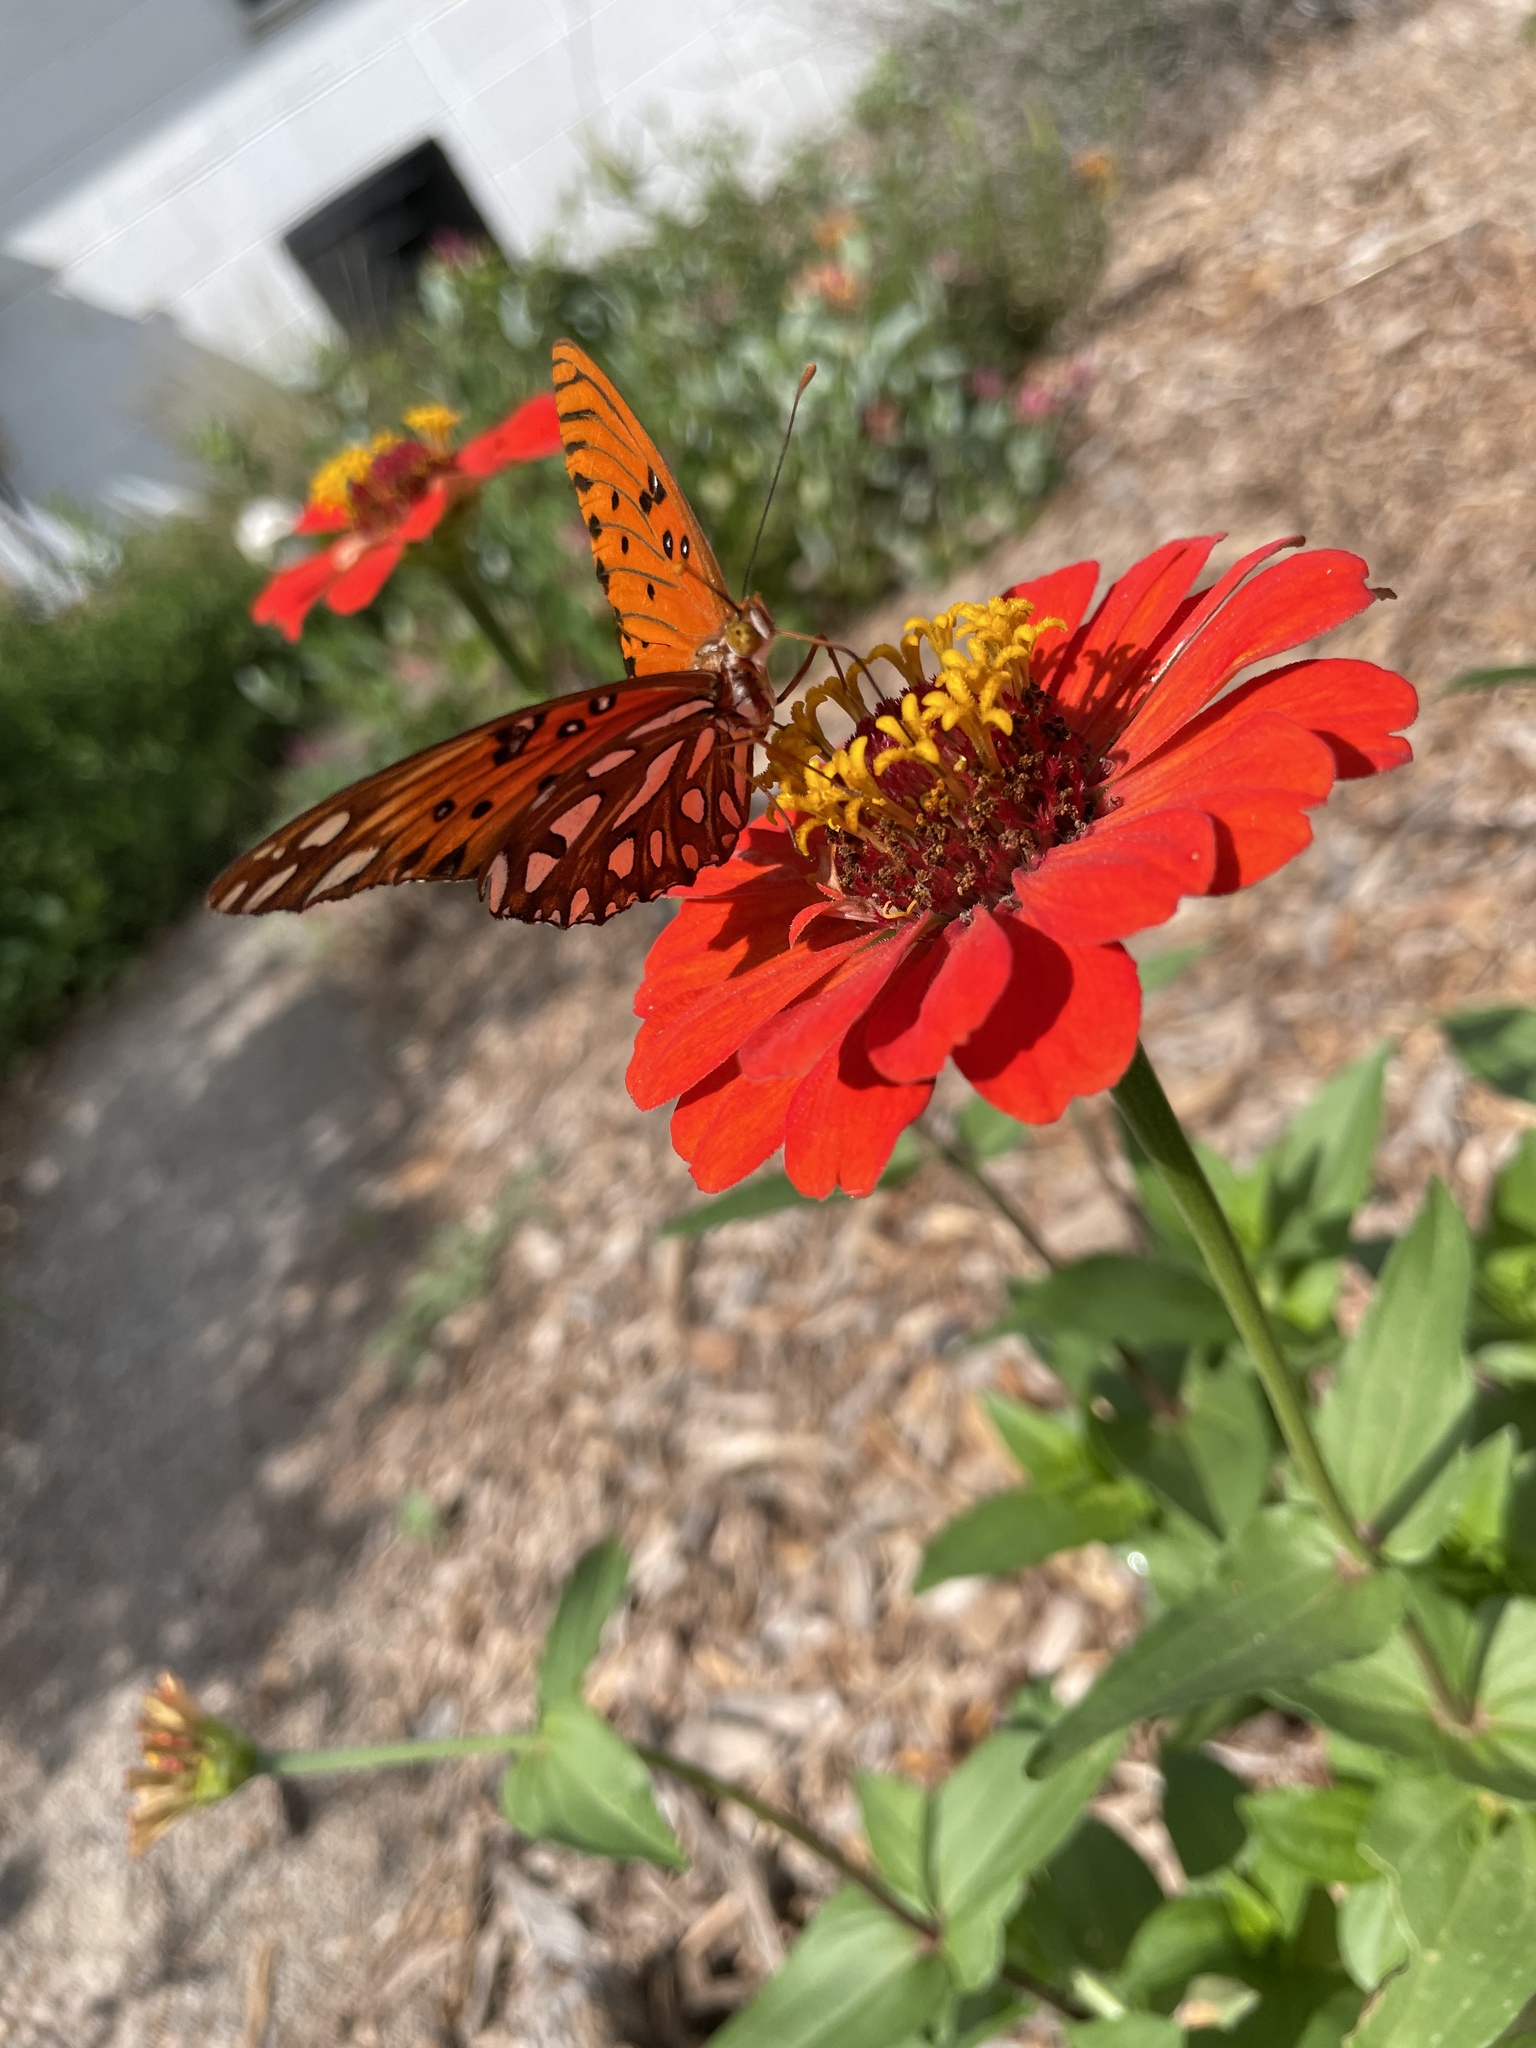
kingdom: Animalia
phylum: Arthropoda
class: Insecta
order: Lepidoptera
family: Nymphalidae
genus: Dione
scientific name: Dione vanillae
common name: Gulf fritillary
